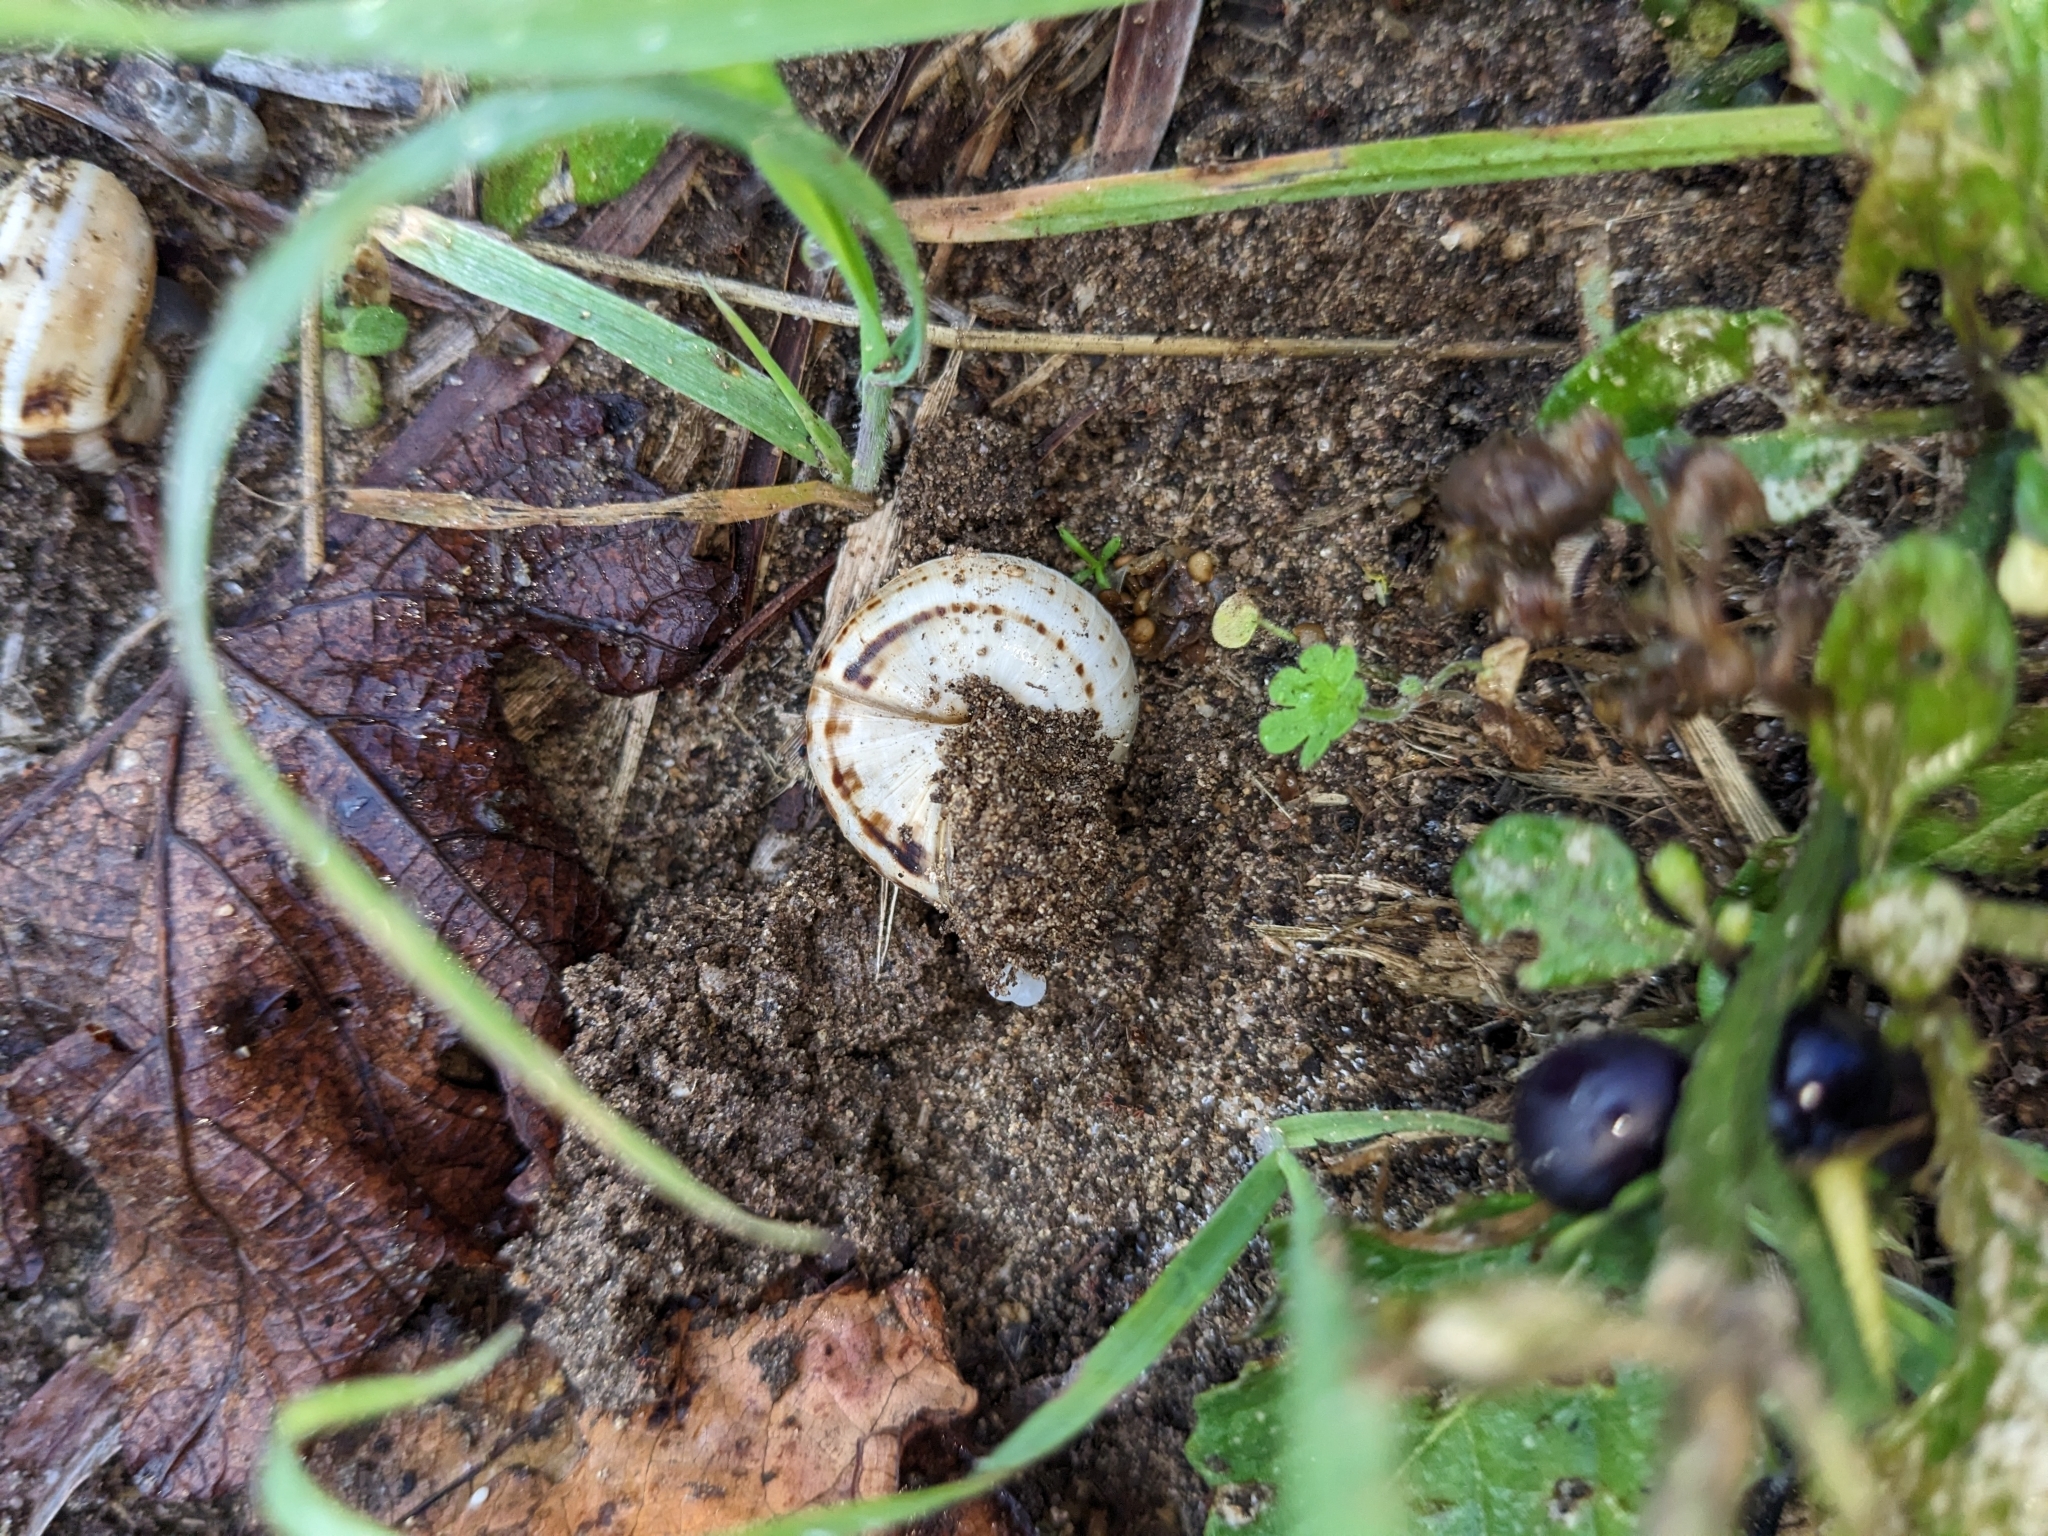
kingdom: Animalia
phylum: Mollusca
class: Gastropoda
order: Stylommatophora
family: Helicidae
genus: Theba
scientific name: Theba pisana
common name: White snail
